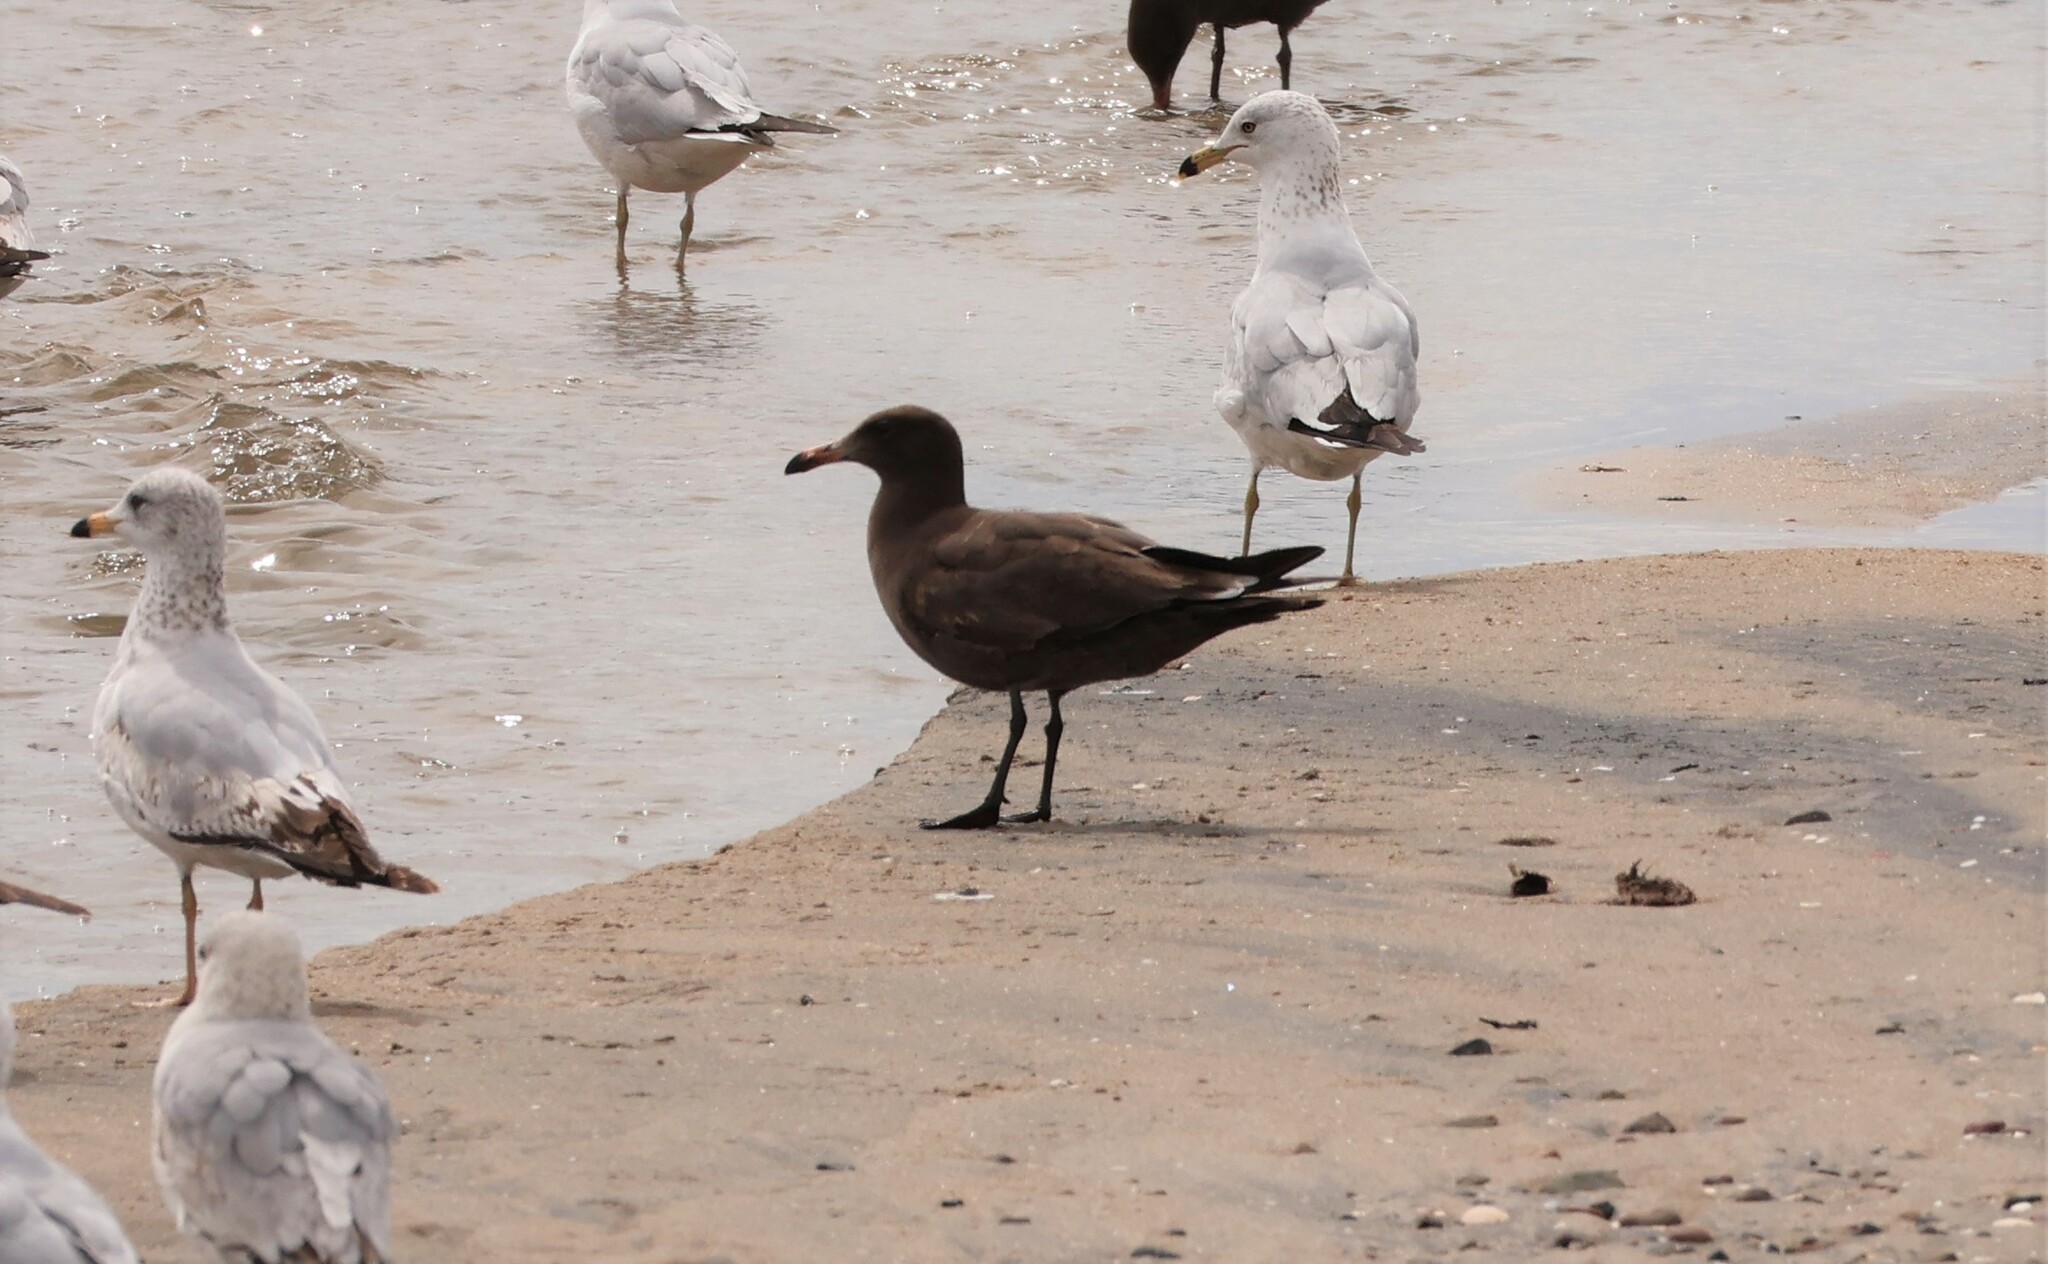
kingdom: Animalia
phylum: Chordata
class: Aves
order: Charadriiformes
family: Laridae
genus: Larus
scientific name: Larus heermanni
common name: Heermann's gull
